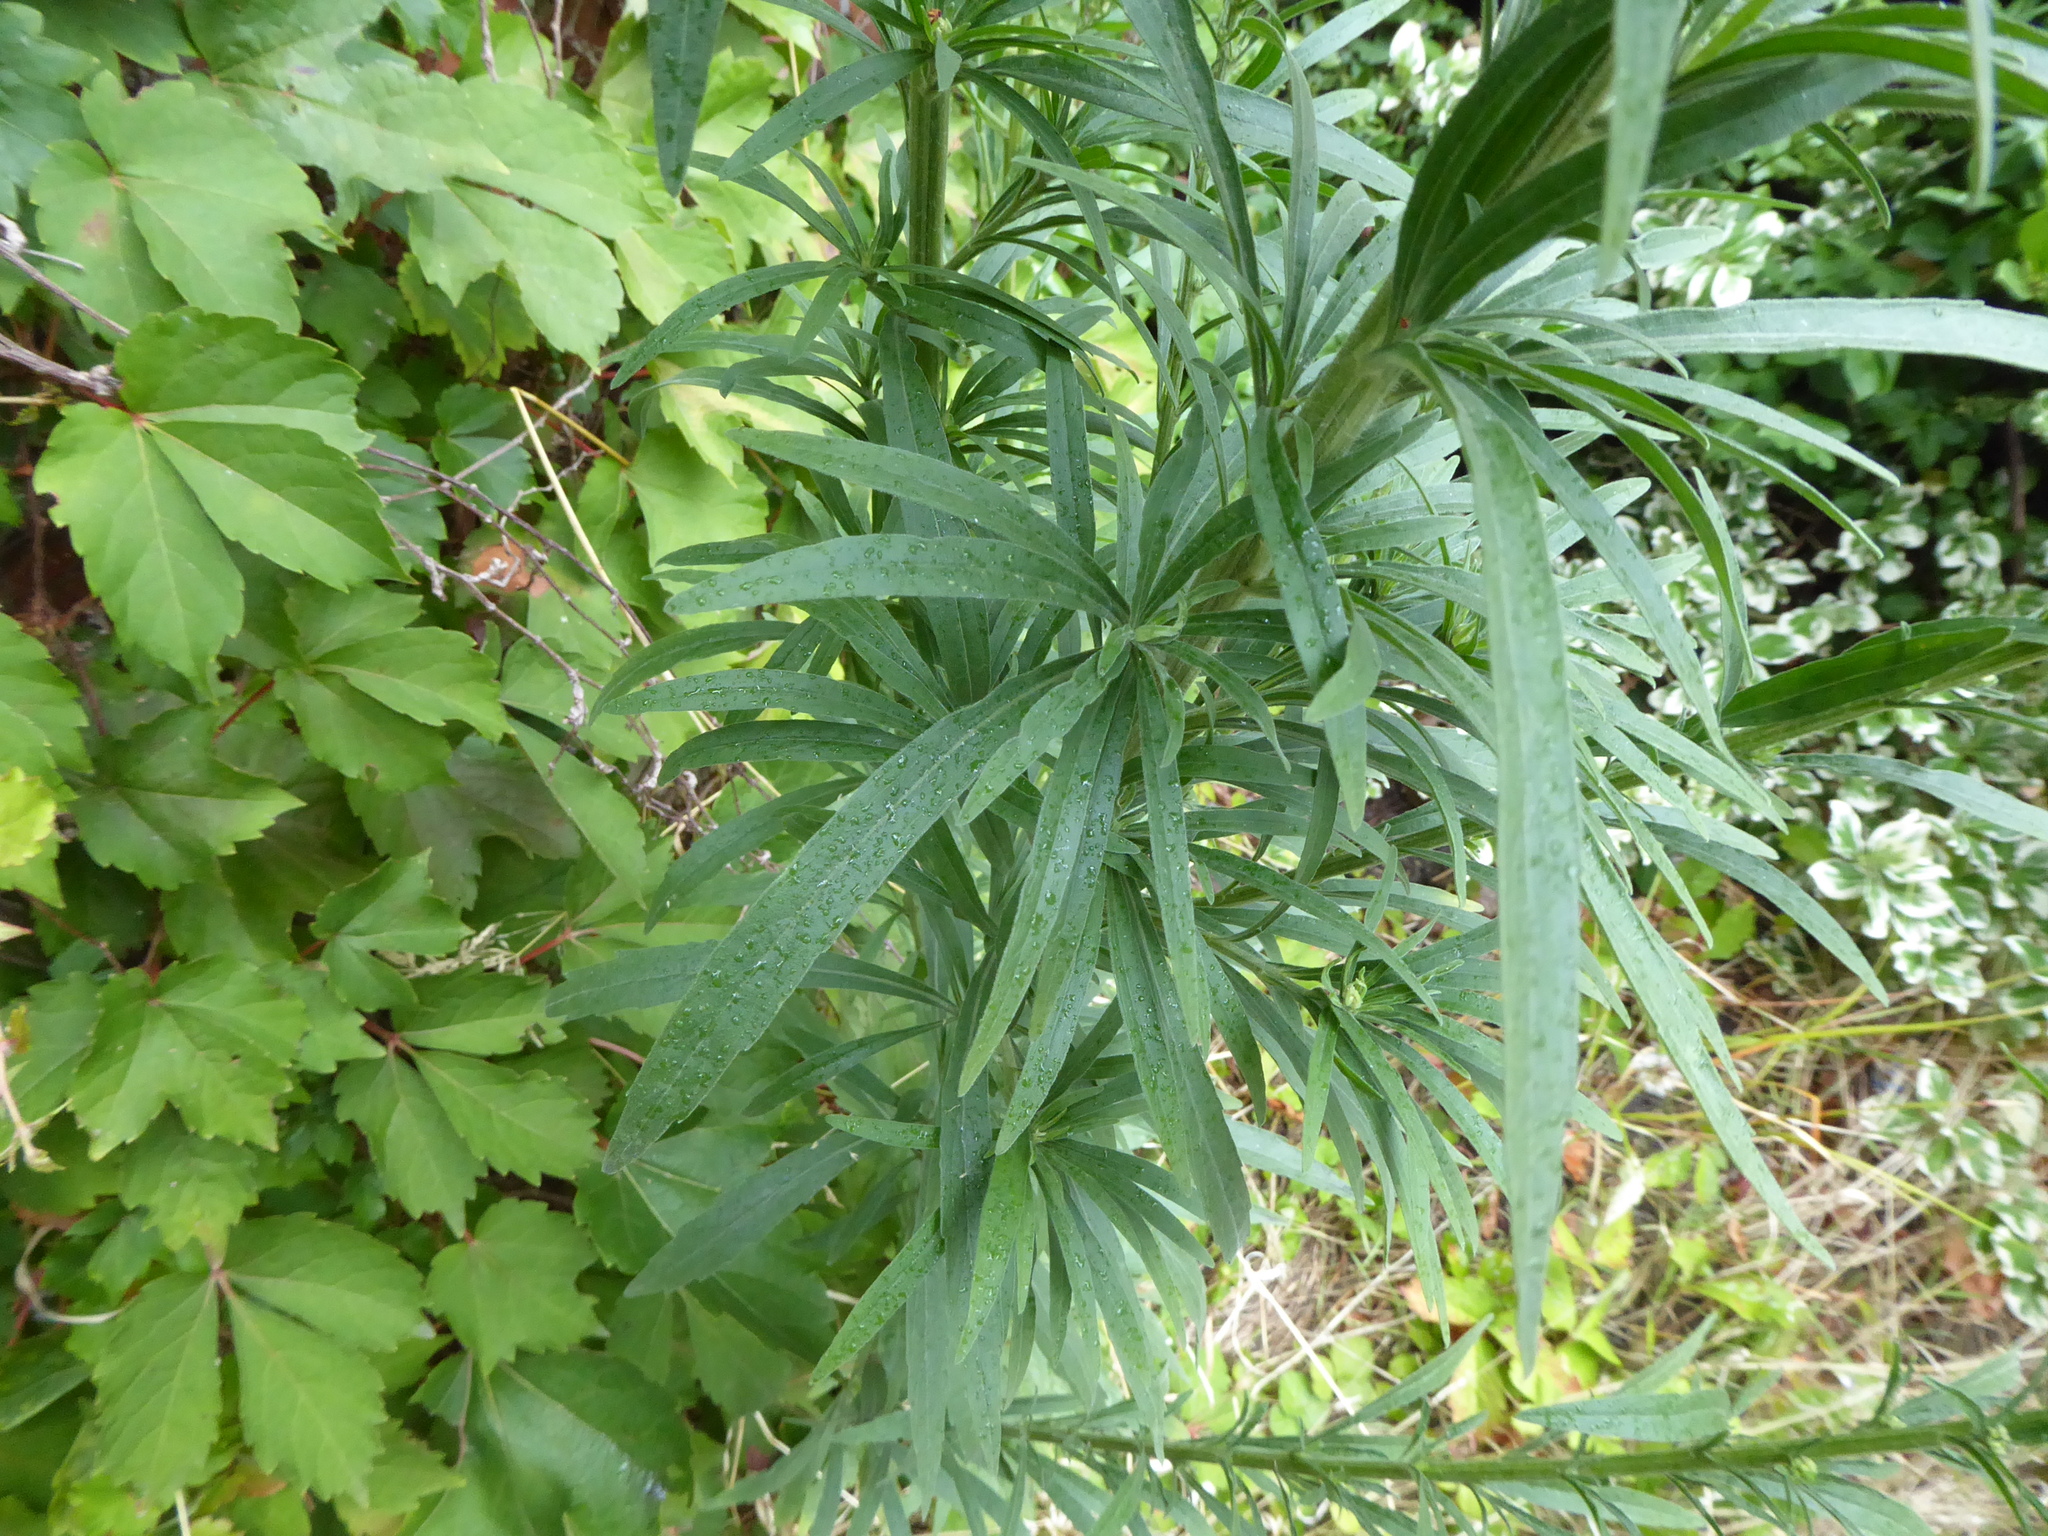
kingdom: Plantae
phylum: Tracheophyta
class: Magnoliopsida
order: Asterales
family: Asteraceae
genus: Erigeron
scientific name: Erigeron sumatrensis
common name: Daisy
